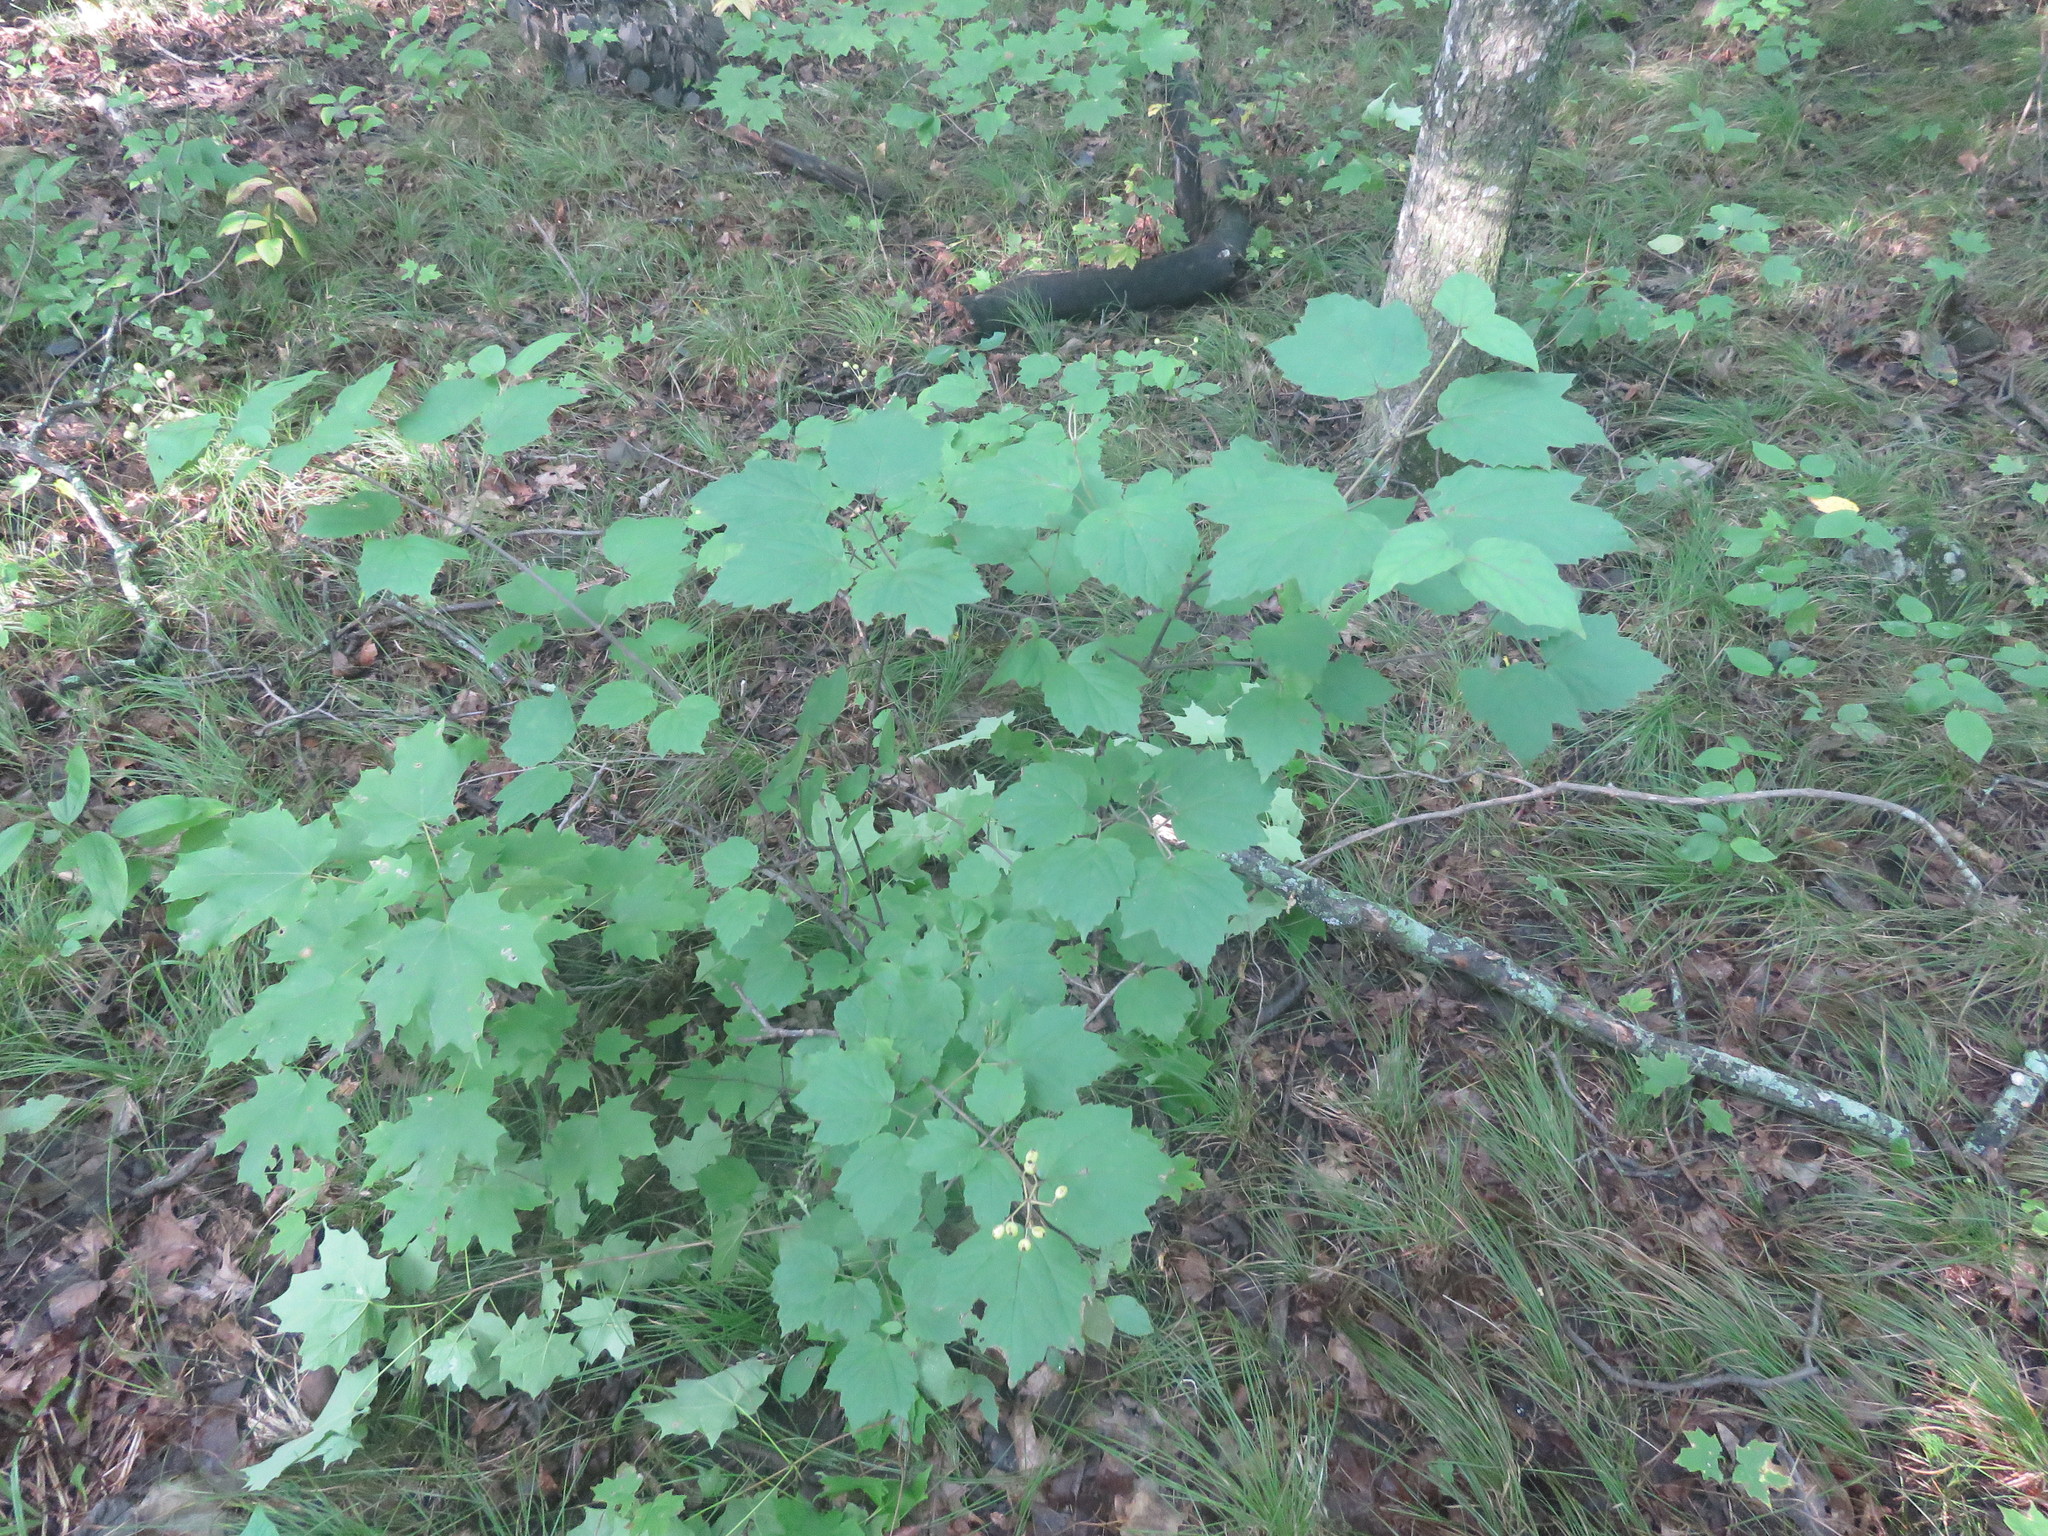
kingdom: Plantae
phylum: Tracheophyta
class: Magnoliopsida
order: Dipsacales
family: Viburnaceae
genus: Viburnum
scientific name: Viburnum acerifolium
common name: Dockmackie
